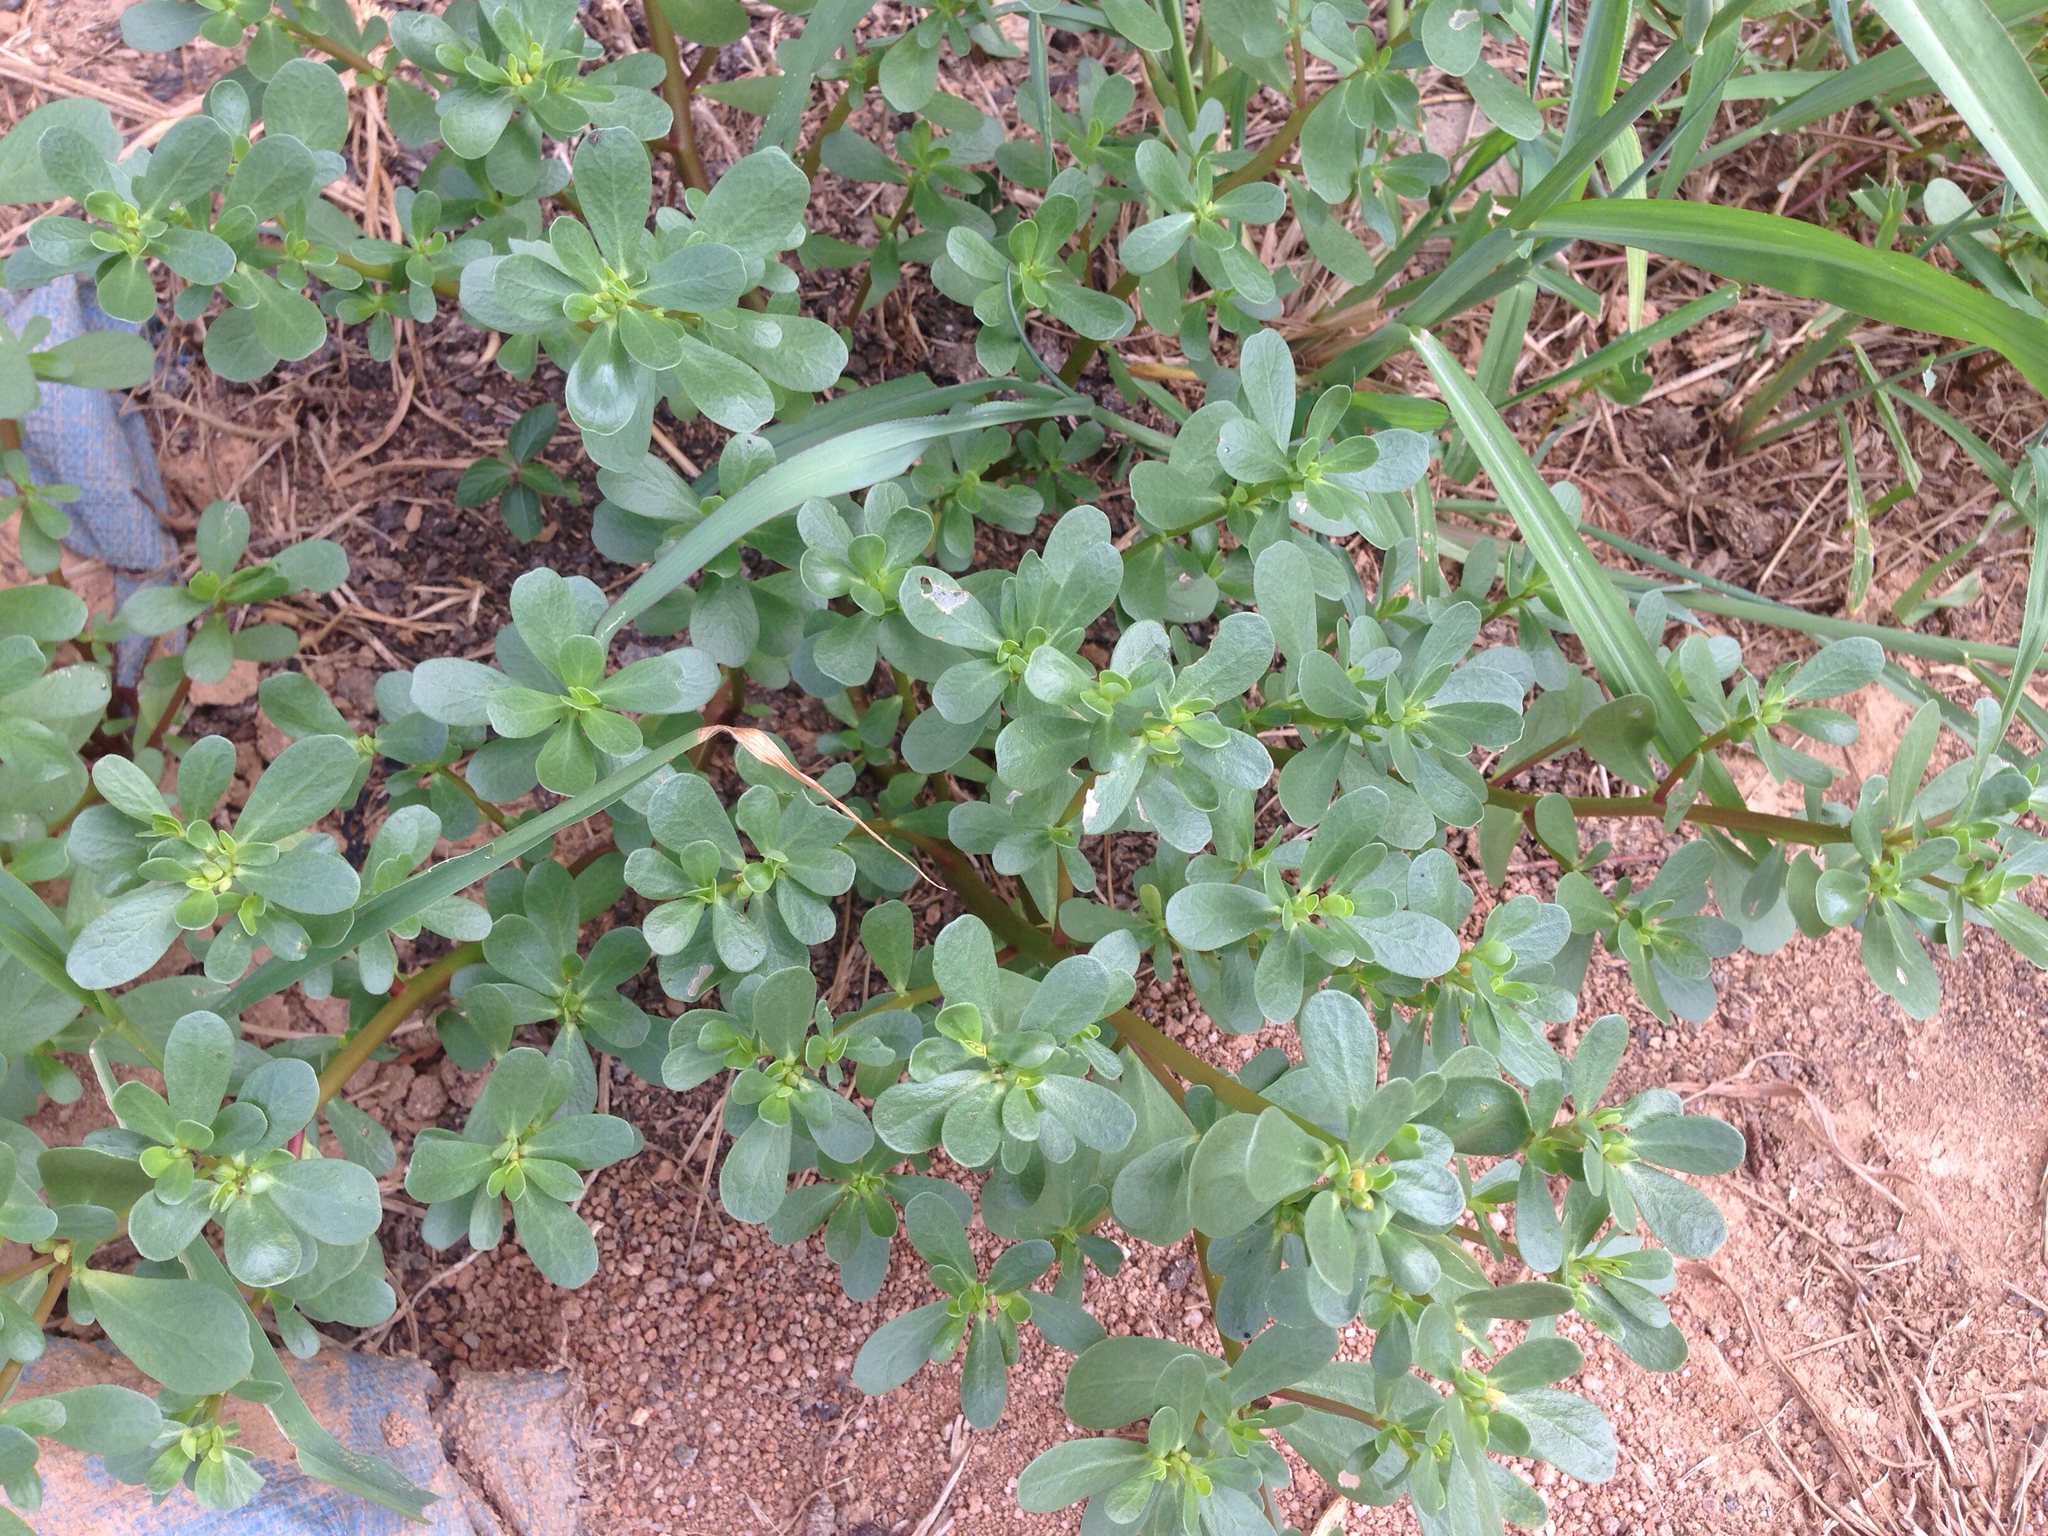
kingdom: Plantae
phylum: Tracheophyta
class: Magnoliopsida
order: Caryophyllales
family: Portulacaceae
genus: Portulaca
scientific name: Portulaca oleracea
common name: Common purslane
